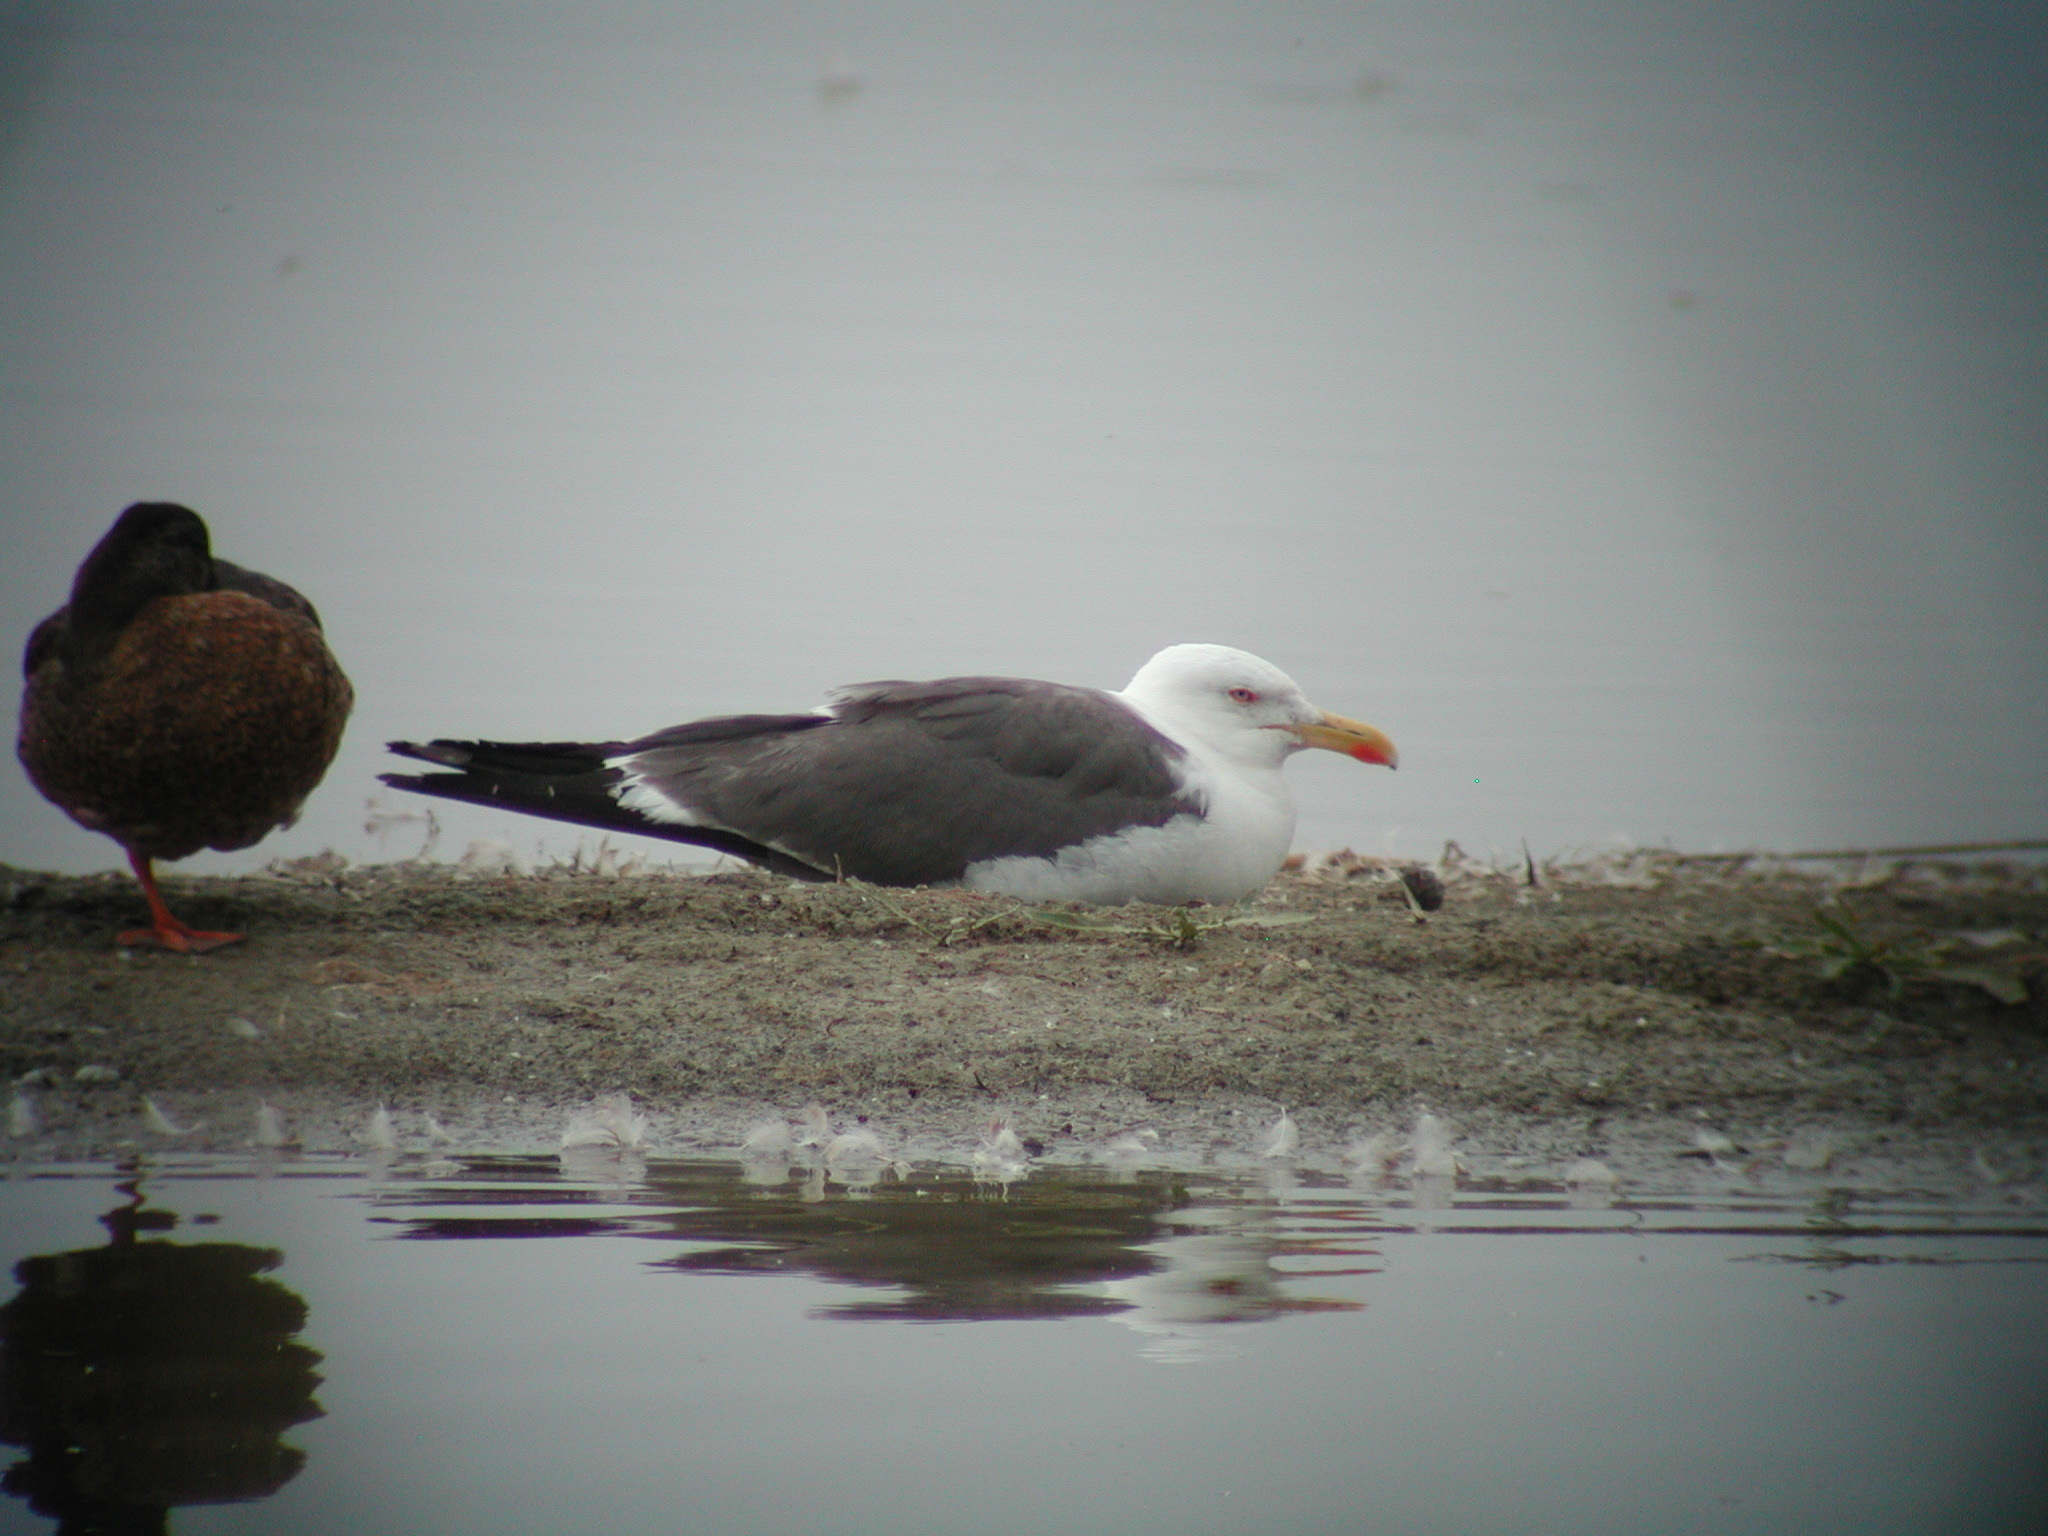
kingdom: Animalia
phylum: Chordata
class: Aves
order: Charadriiformes
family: Laridae
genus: Larus
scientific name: Larus fuscus
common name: Lesser black-backed gull
